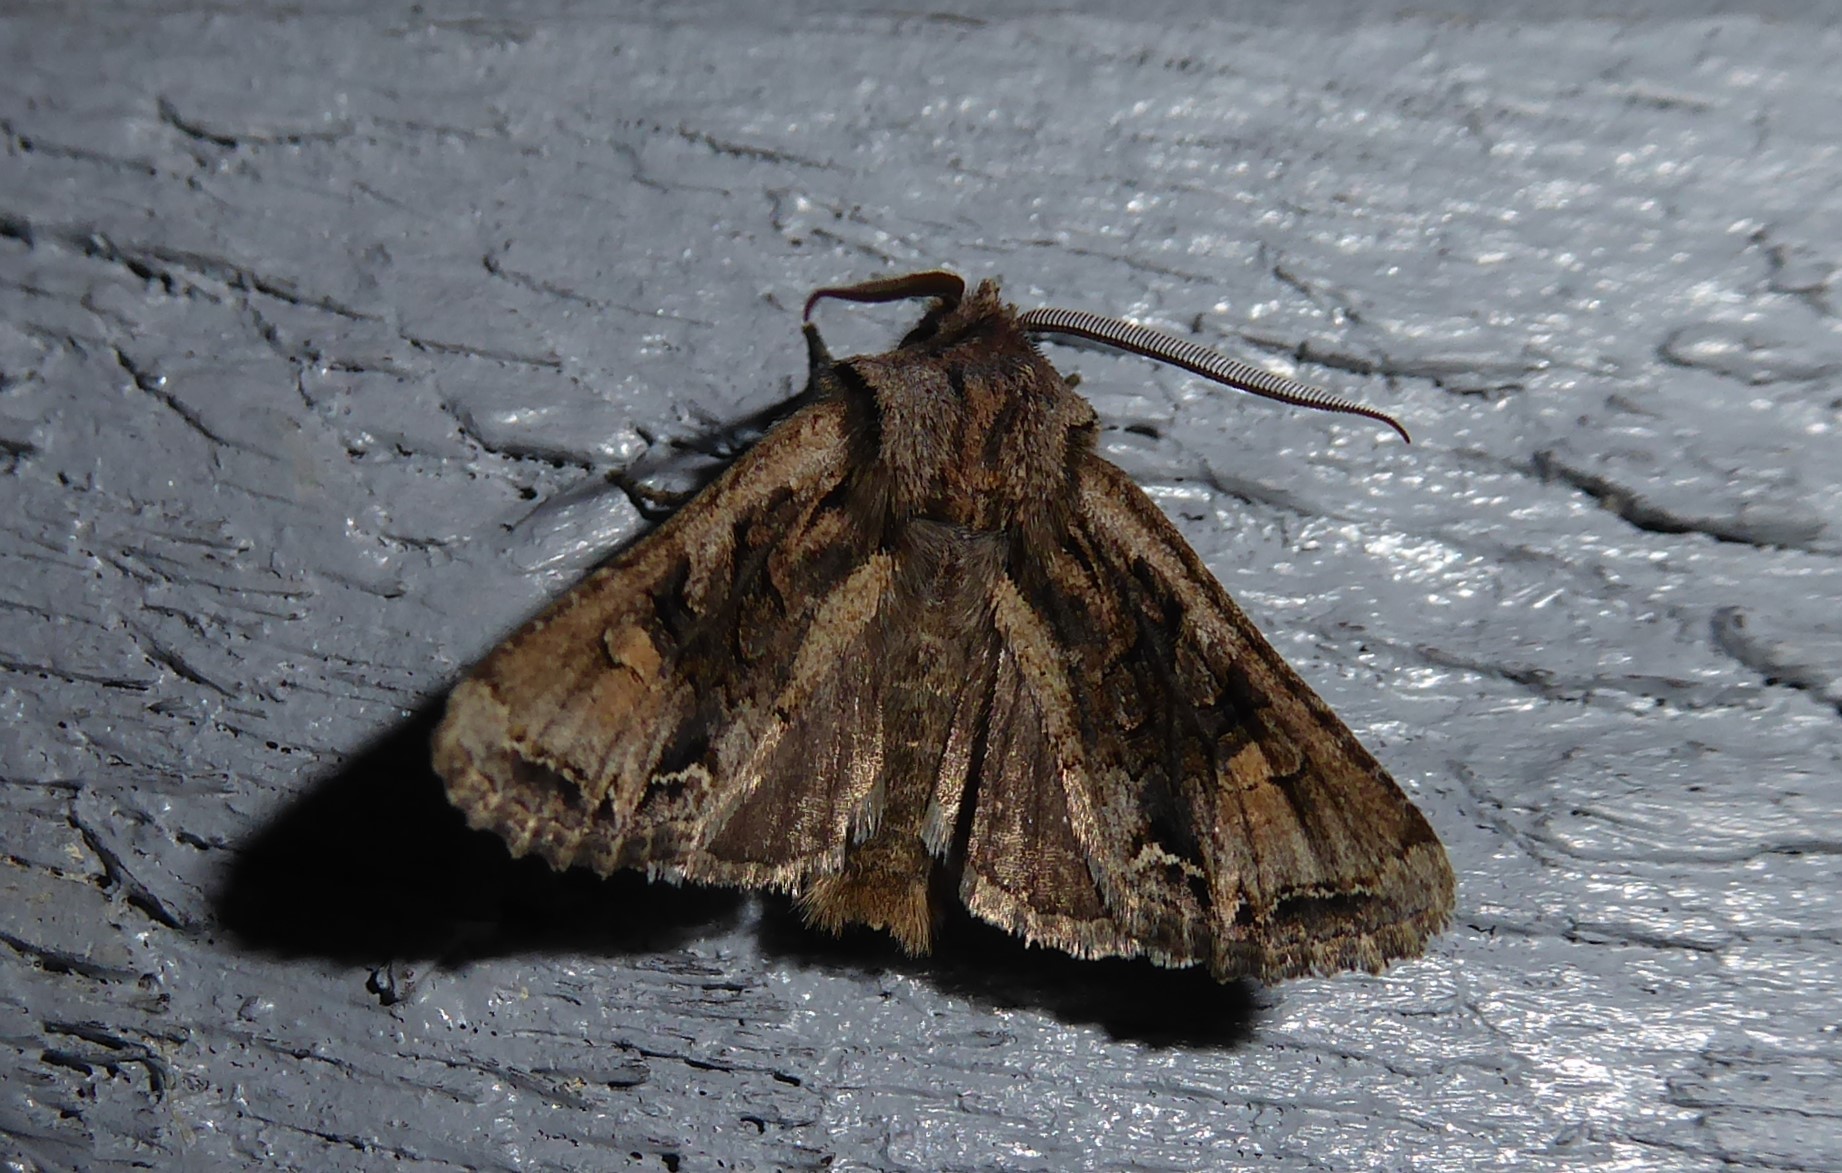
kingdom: Animalia
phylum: Arthropoda
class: Insecta
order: Lepidoptera
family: Noctuidae
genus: Ichneutica
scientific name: Ichneutica skelloni
